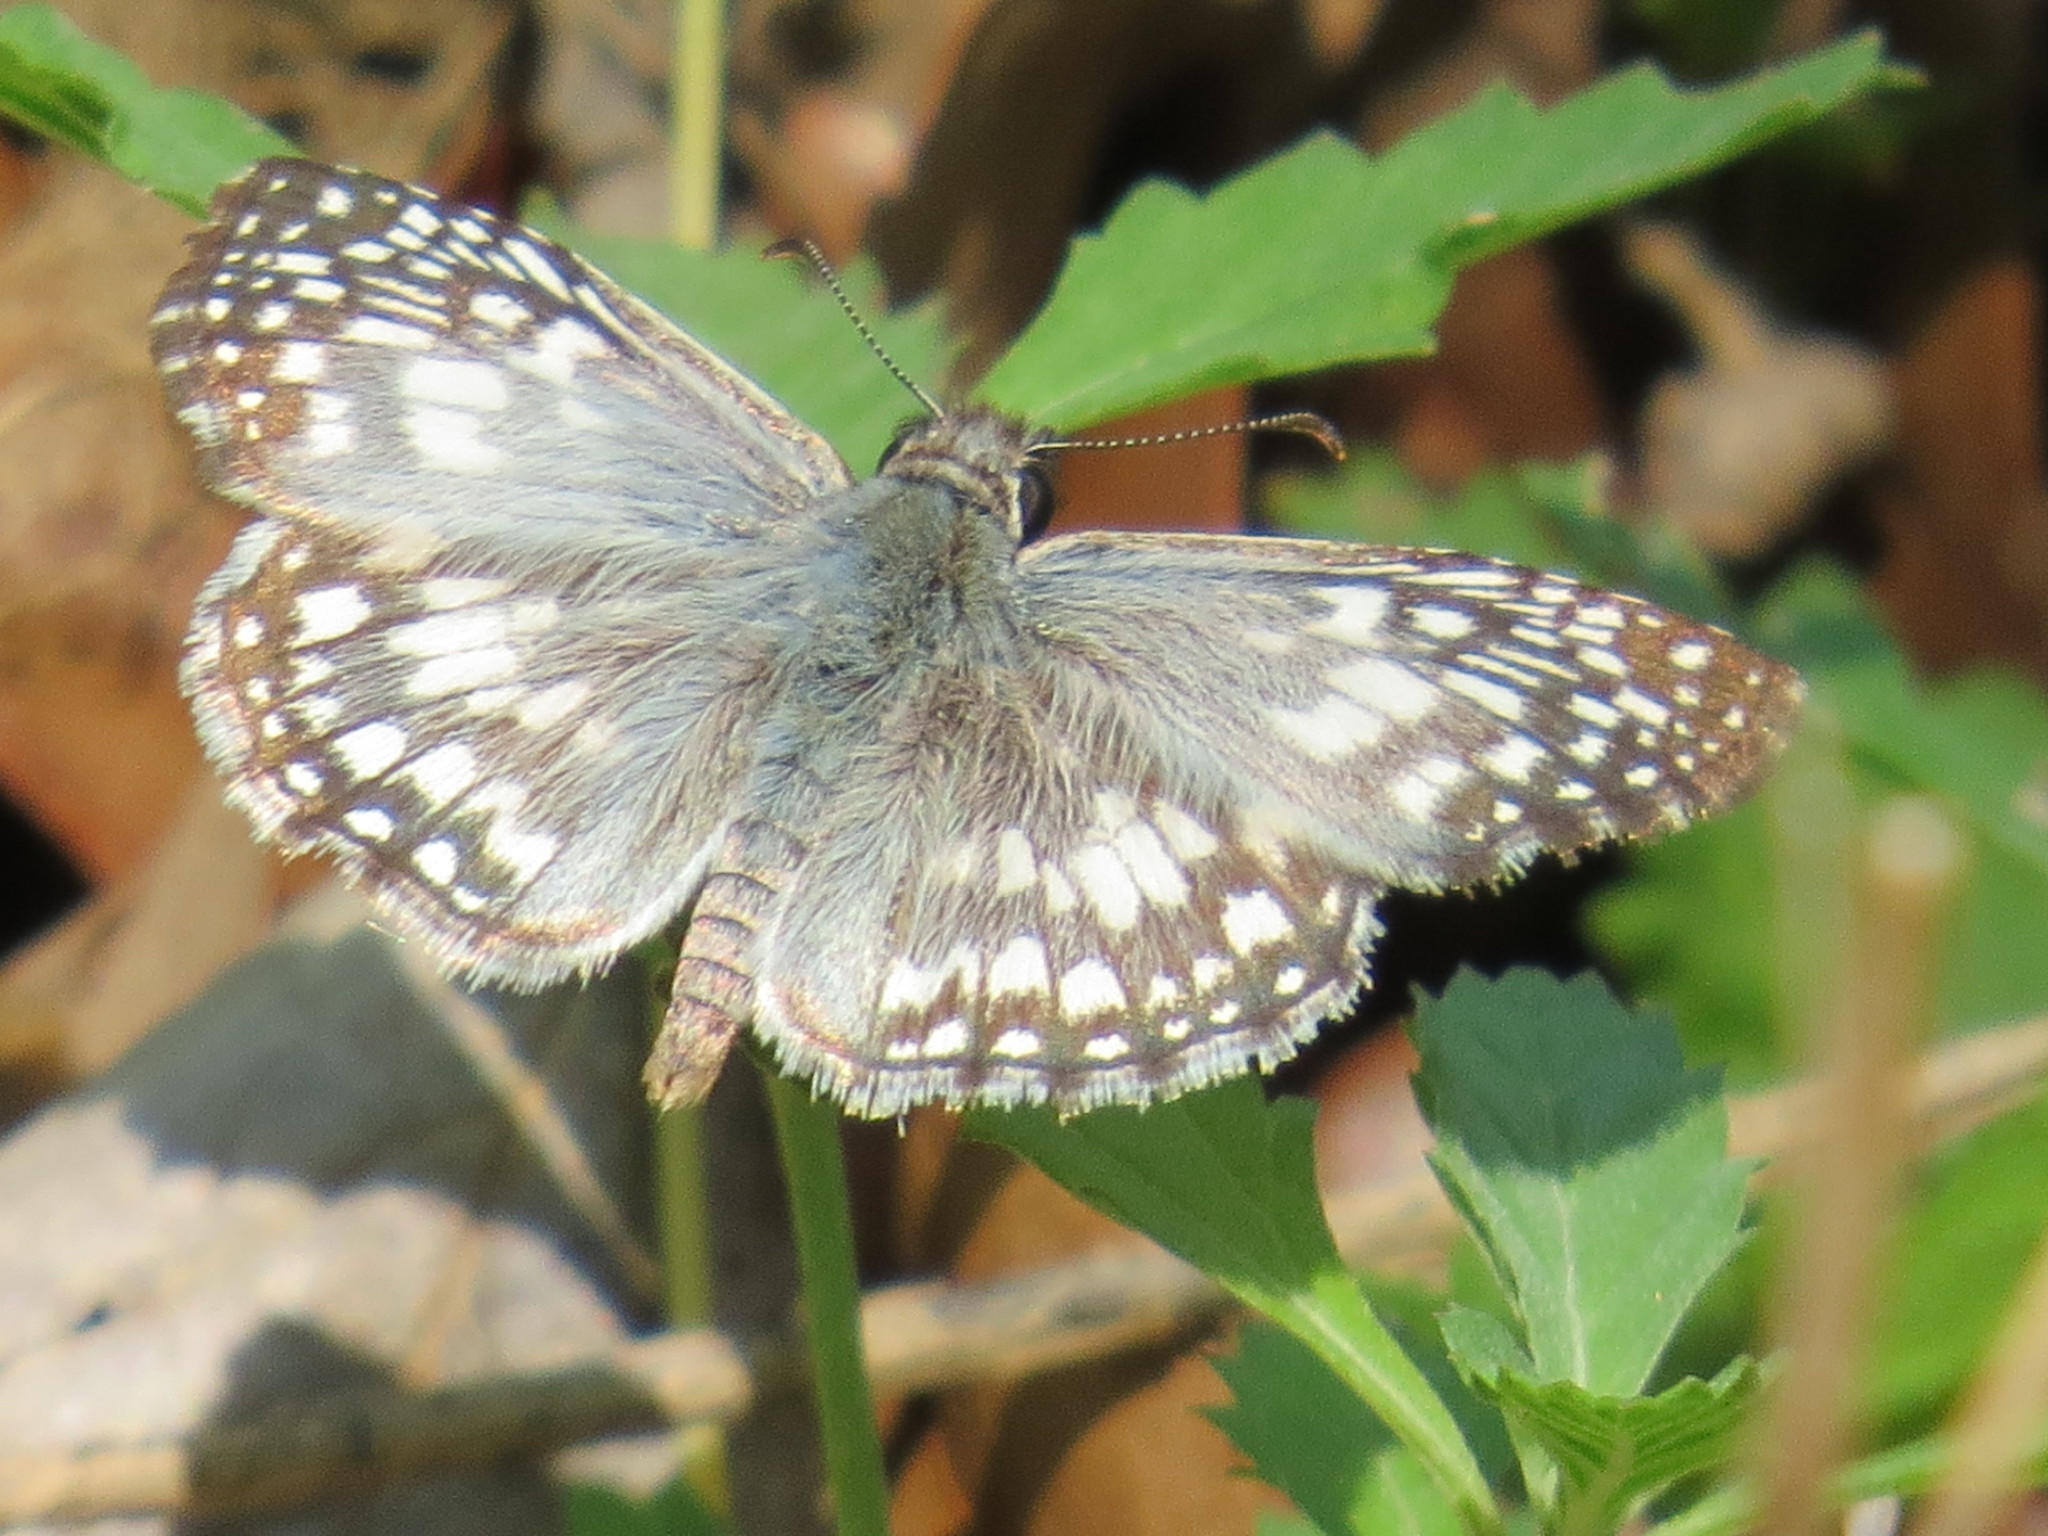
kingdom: Animalia
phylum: Arthropoda
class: Insecta
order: Lepidoptera
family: Hesperiidae
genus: Pyrgus
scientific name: Pyrgus oileus
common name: Tropical checkered-skipper
